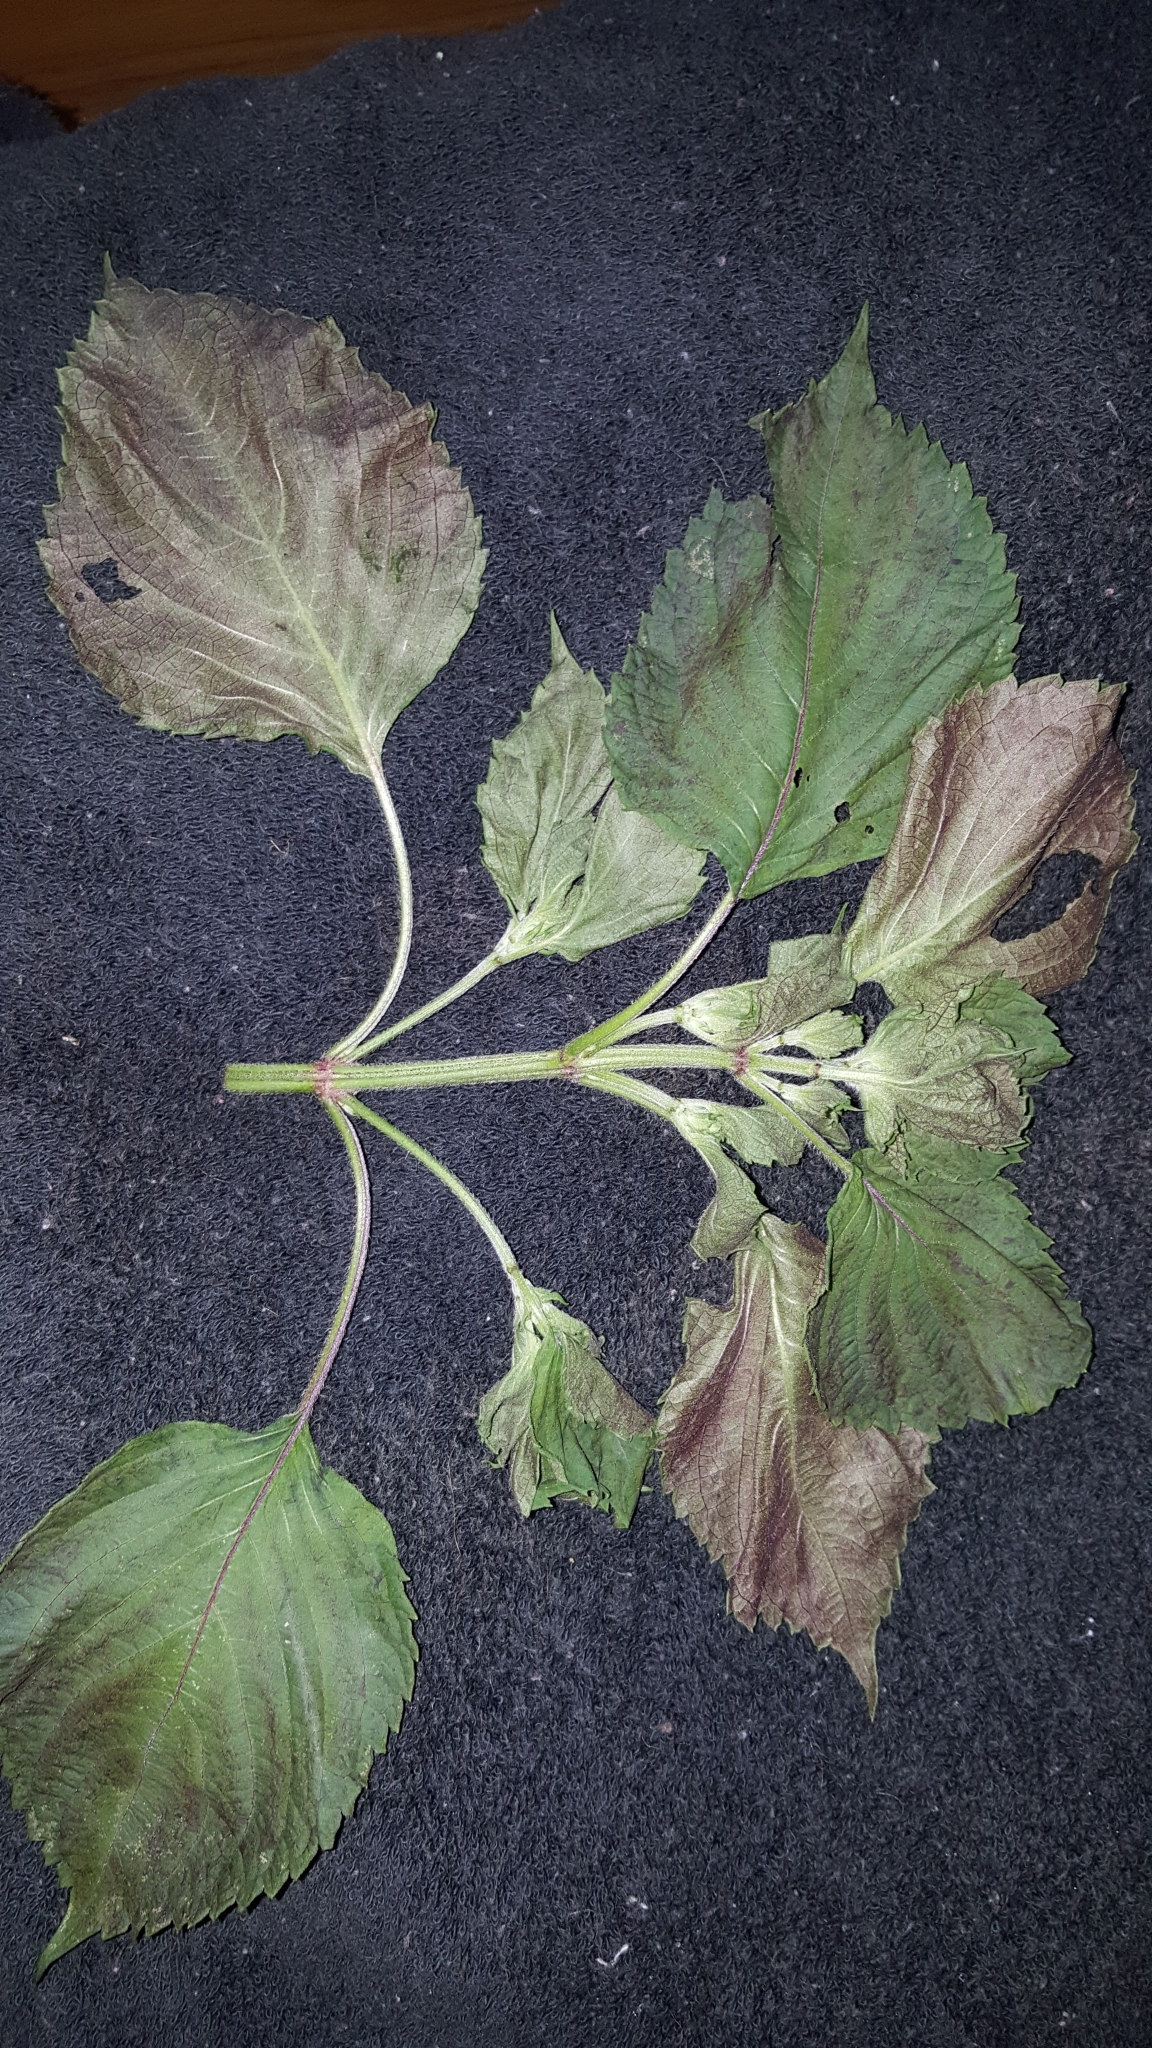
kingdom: Plantae
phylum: Tracheophyta
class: Magnoliopsida
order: Lamiales
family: Lamiaceae
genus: Perilla
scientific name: Perilla frutescens
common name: Perilla
